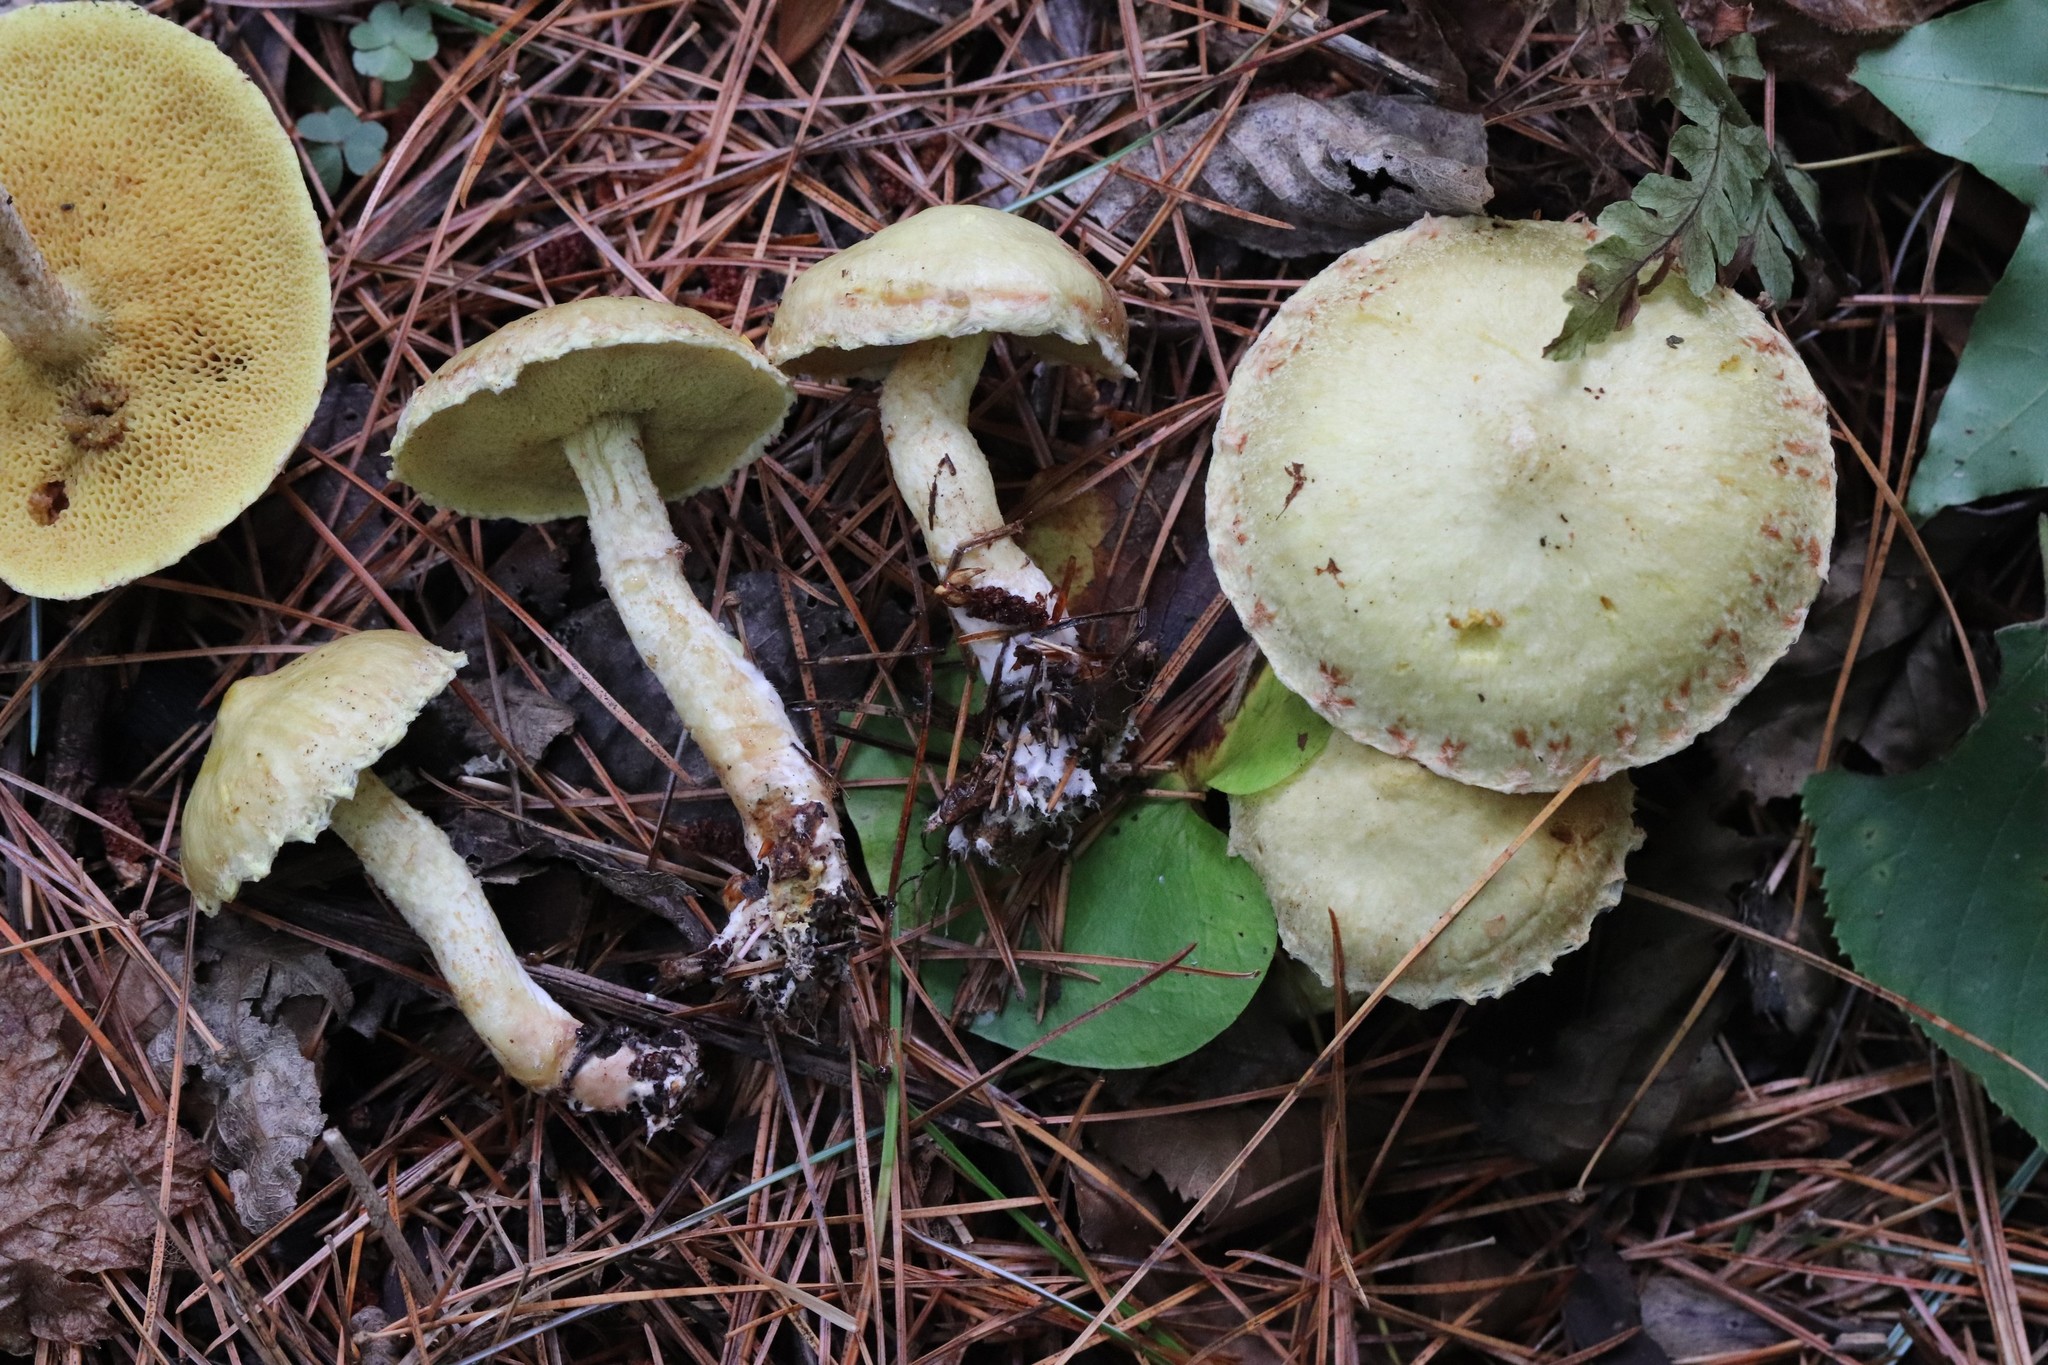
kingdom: Fungi
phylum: Basidiomycota
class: Agaricomycetes
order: Boletales
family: Suillaceae
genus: Suillus
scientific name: Suillus americanus
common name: Chicken fat mushroom
